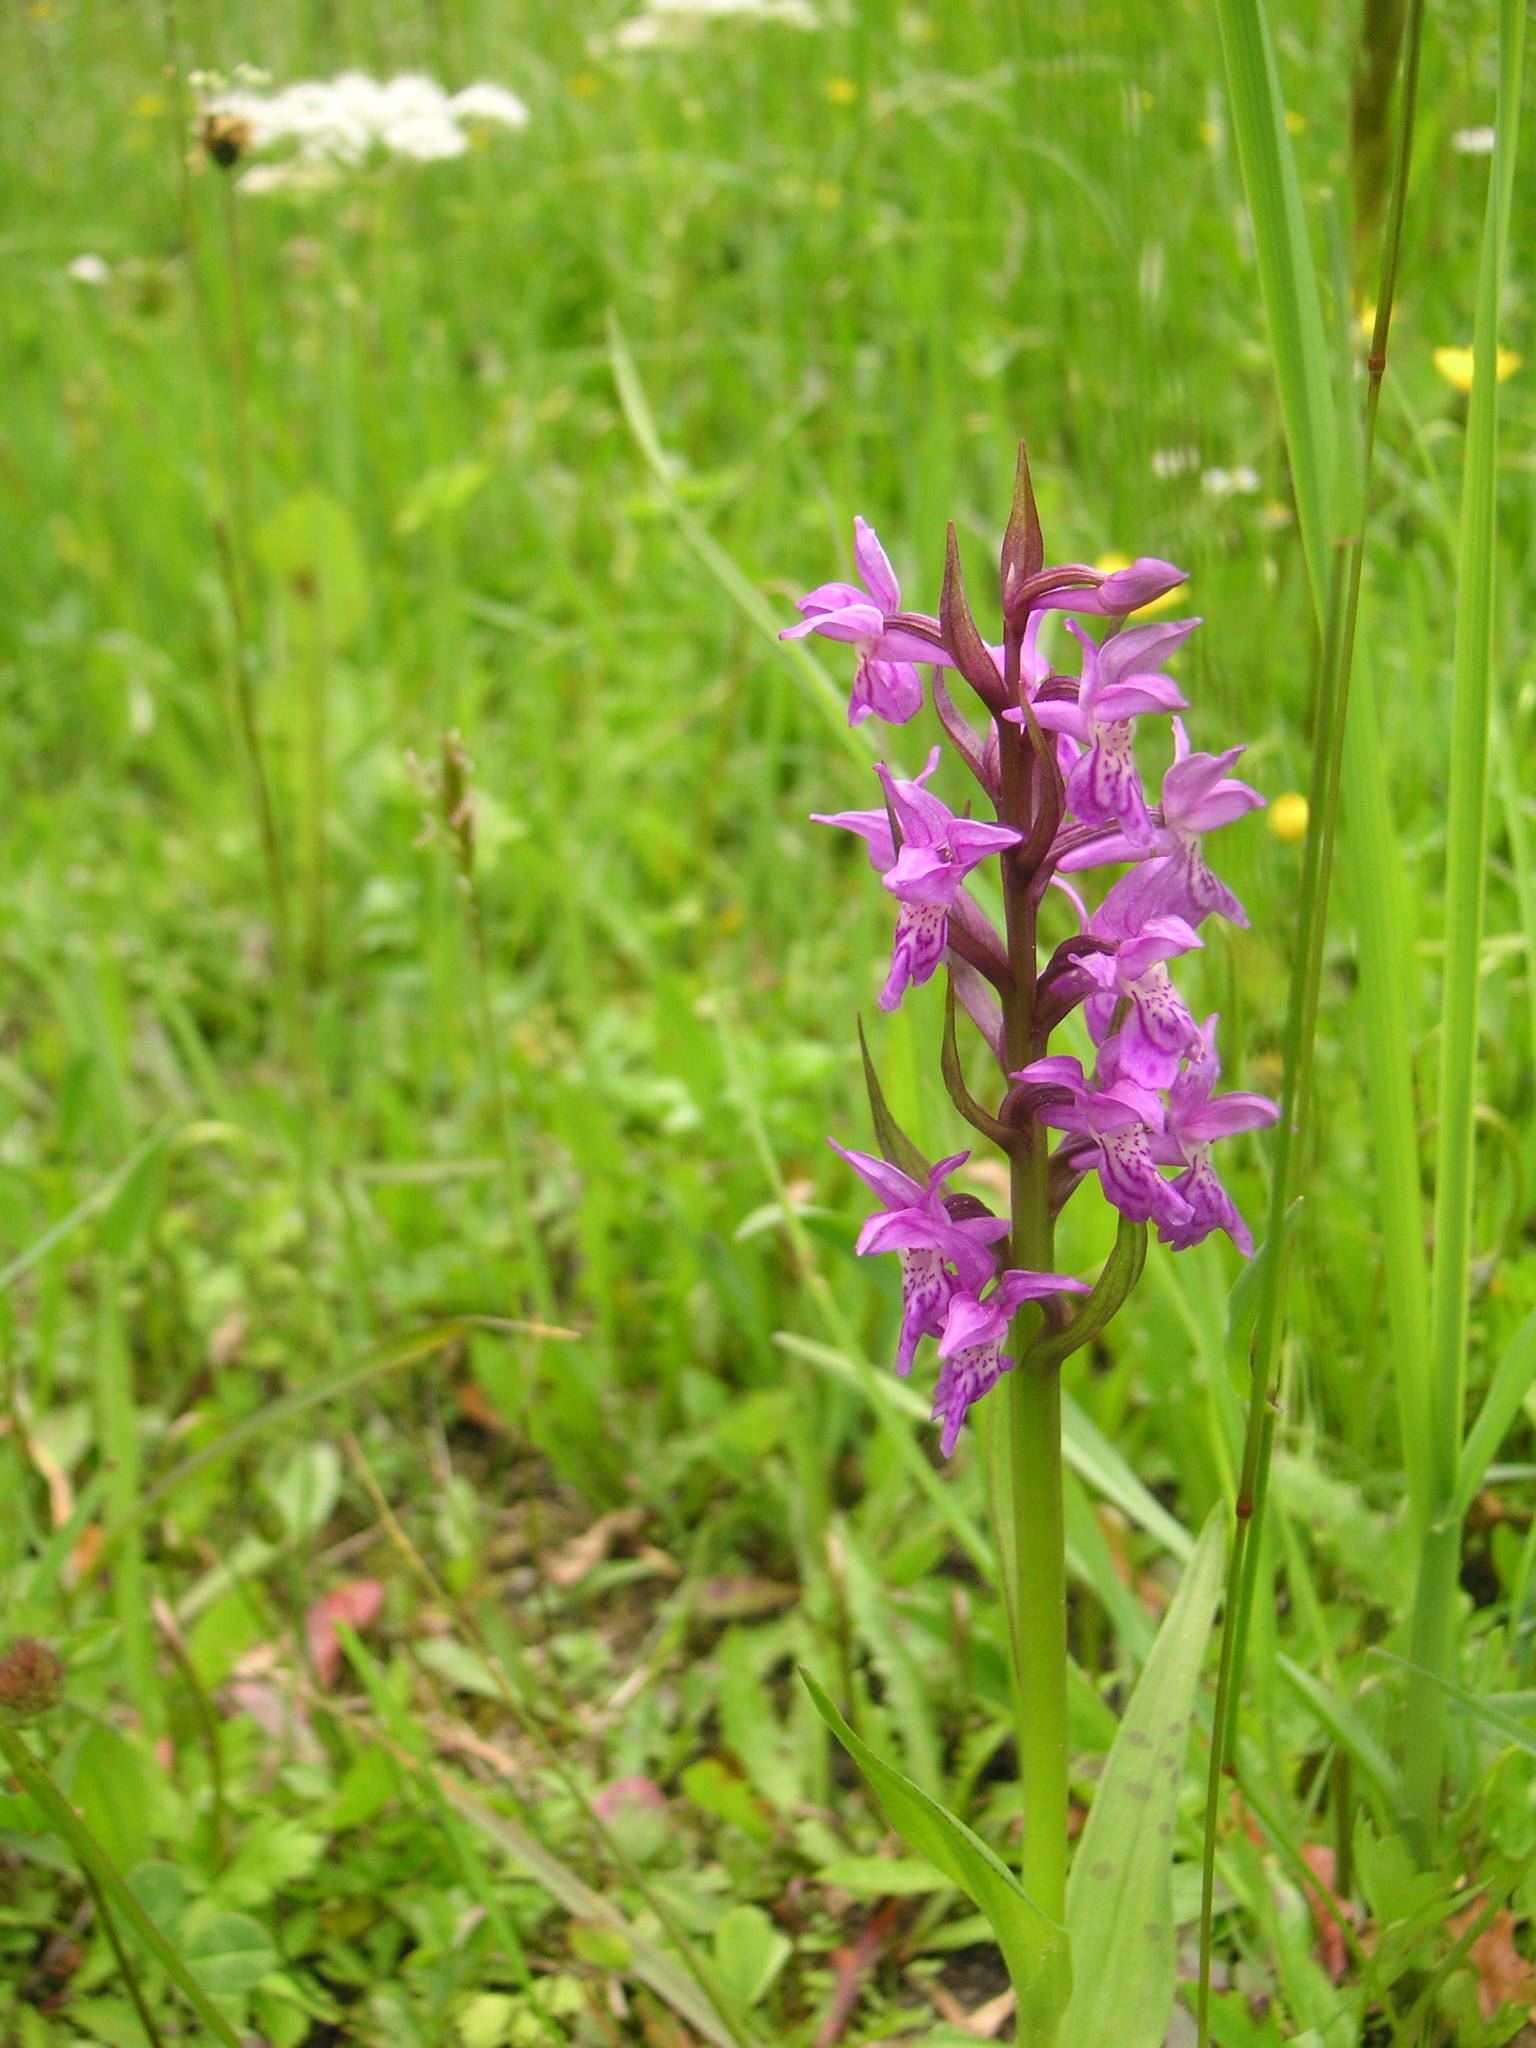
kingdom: Plantae
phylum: Tracheophyta
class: Liliopsida
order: Asparagales
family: Orchidaceae
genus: Dactylorhiza
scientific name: Dactylorhiza majalis
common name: Marsh orchid
